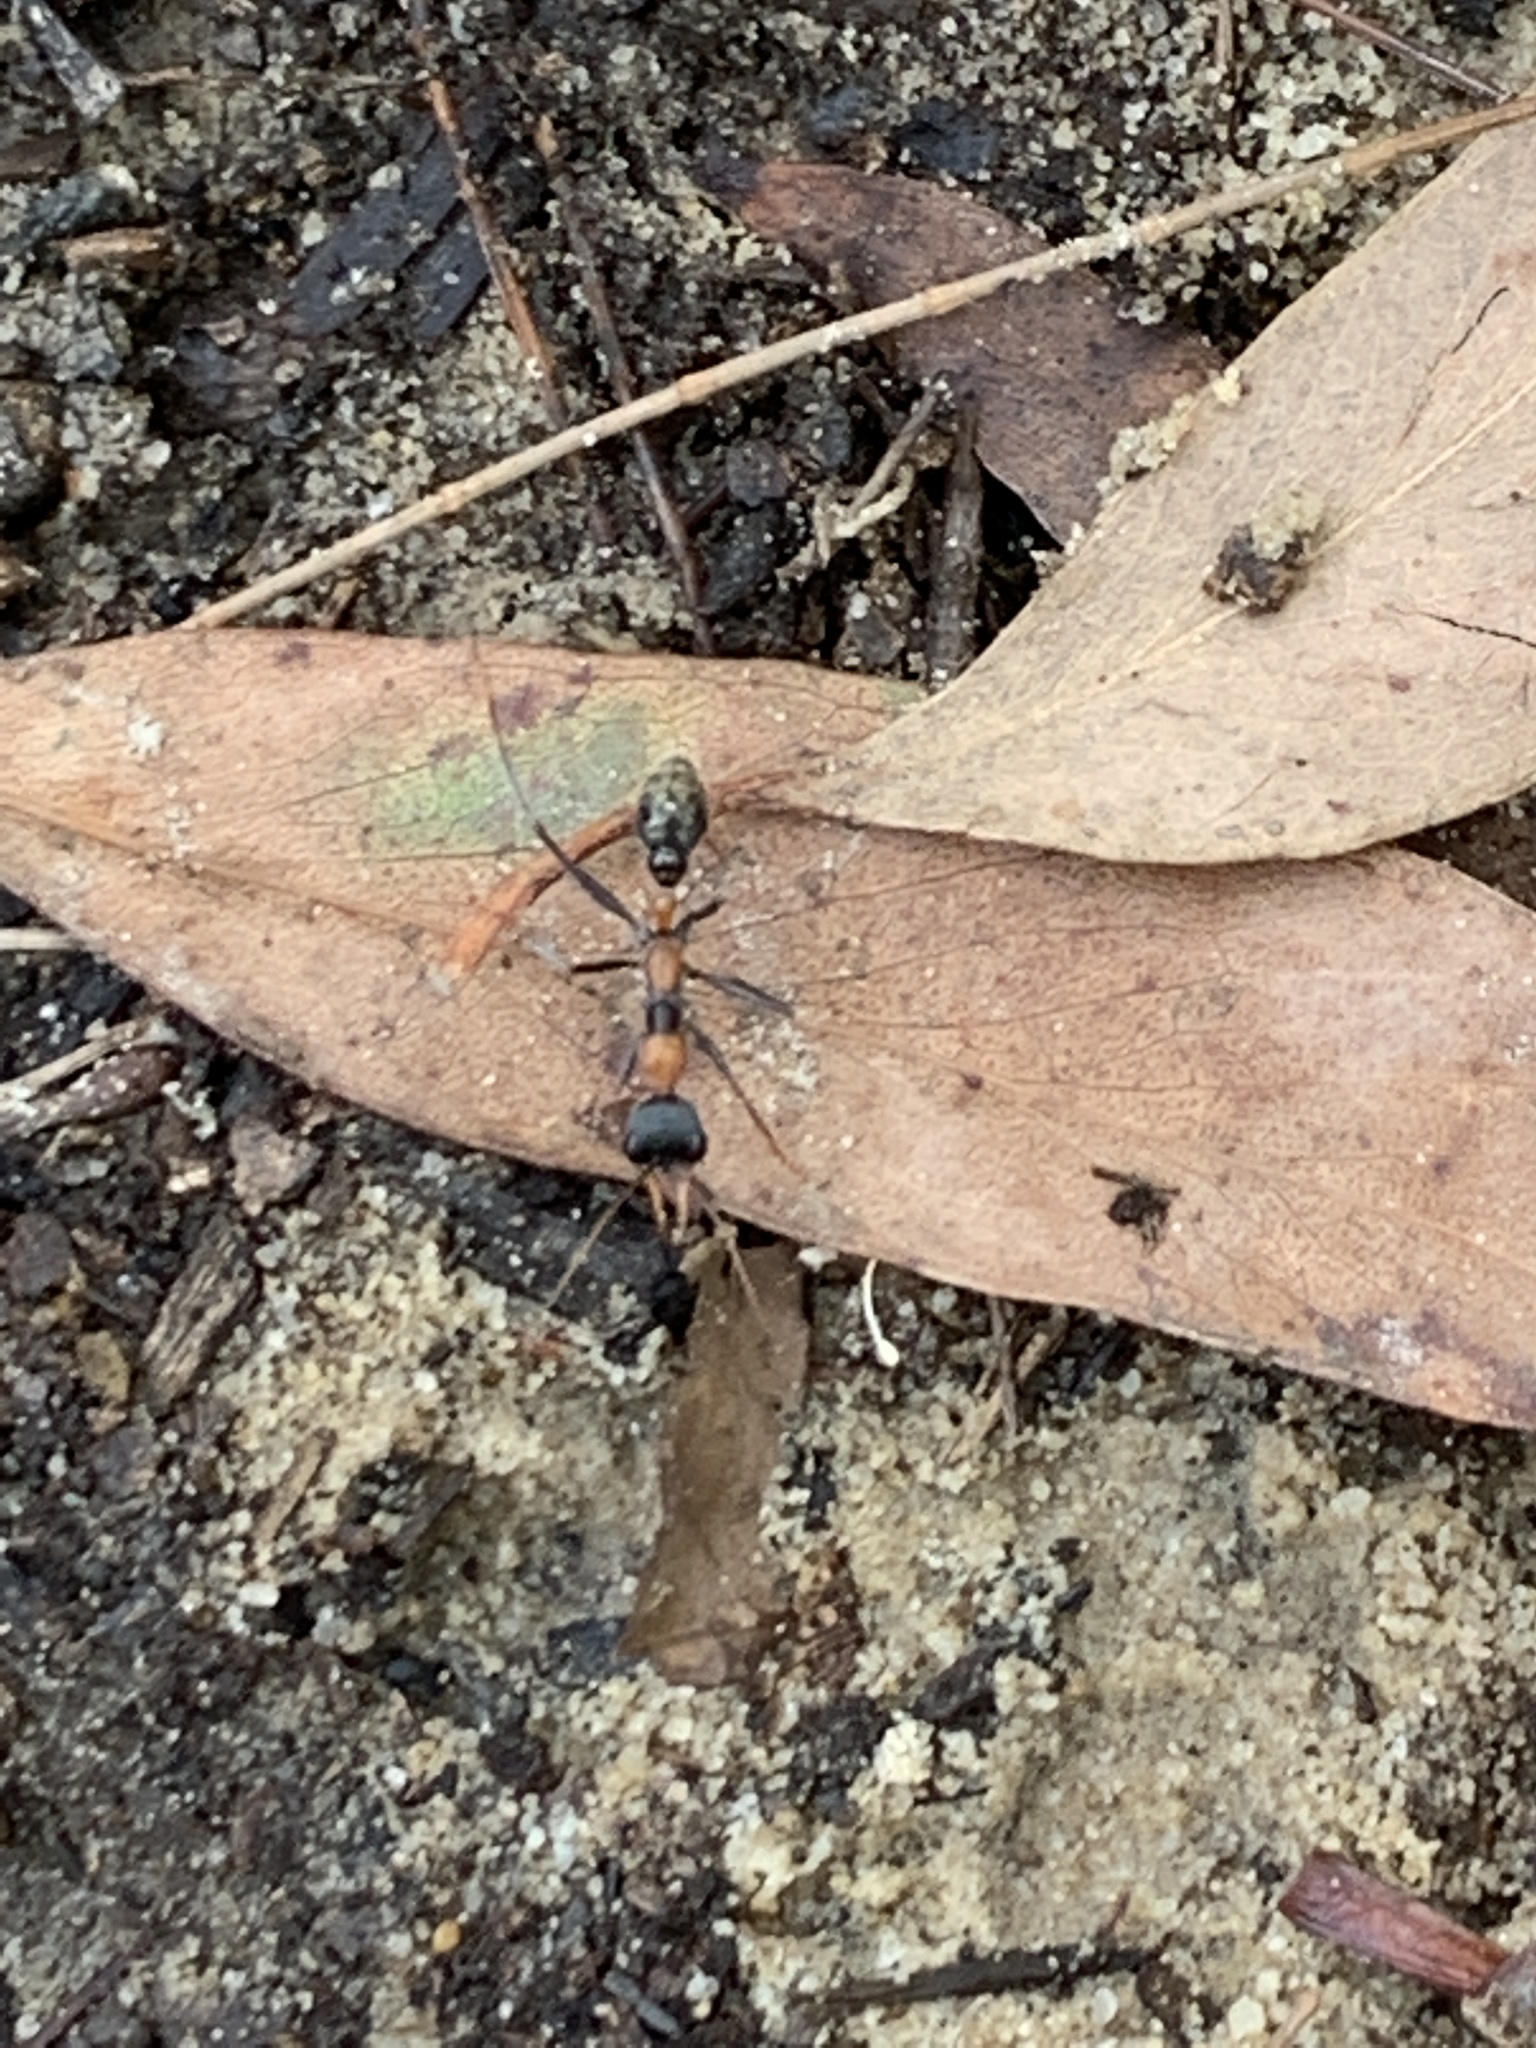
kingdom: Animalia
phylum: Arthropoda
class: Insecta
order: Hymenoptera
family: Formicidae
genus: Myrmecia
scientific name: Myrmecia nigrocincta
